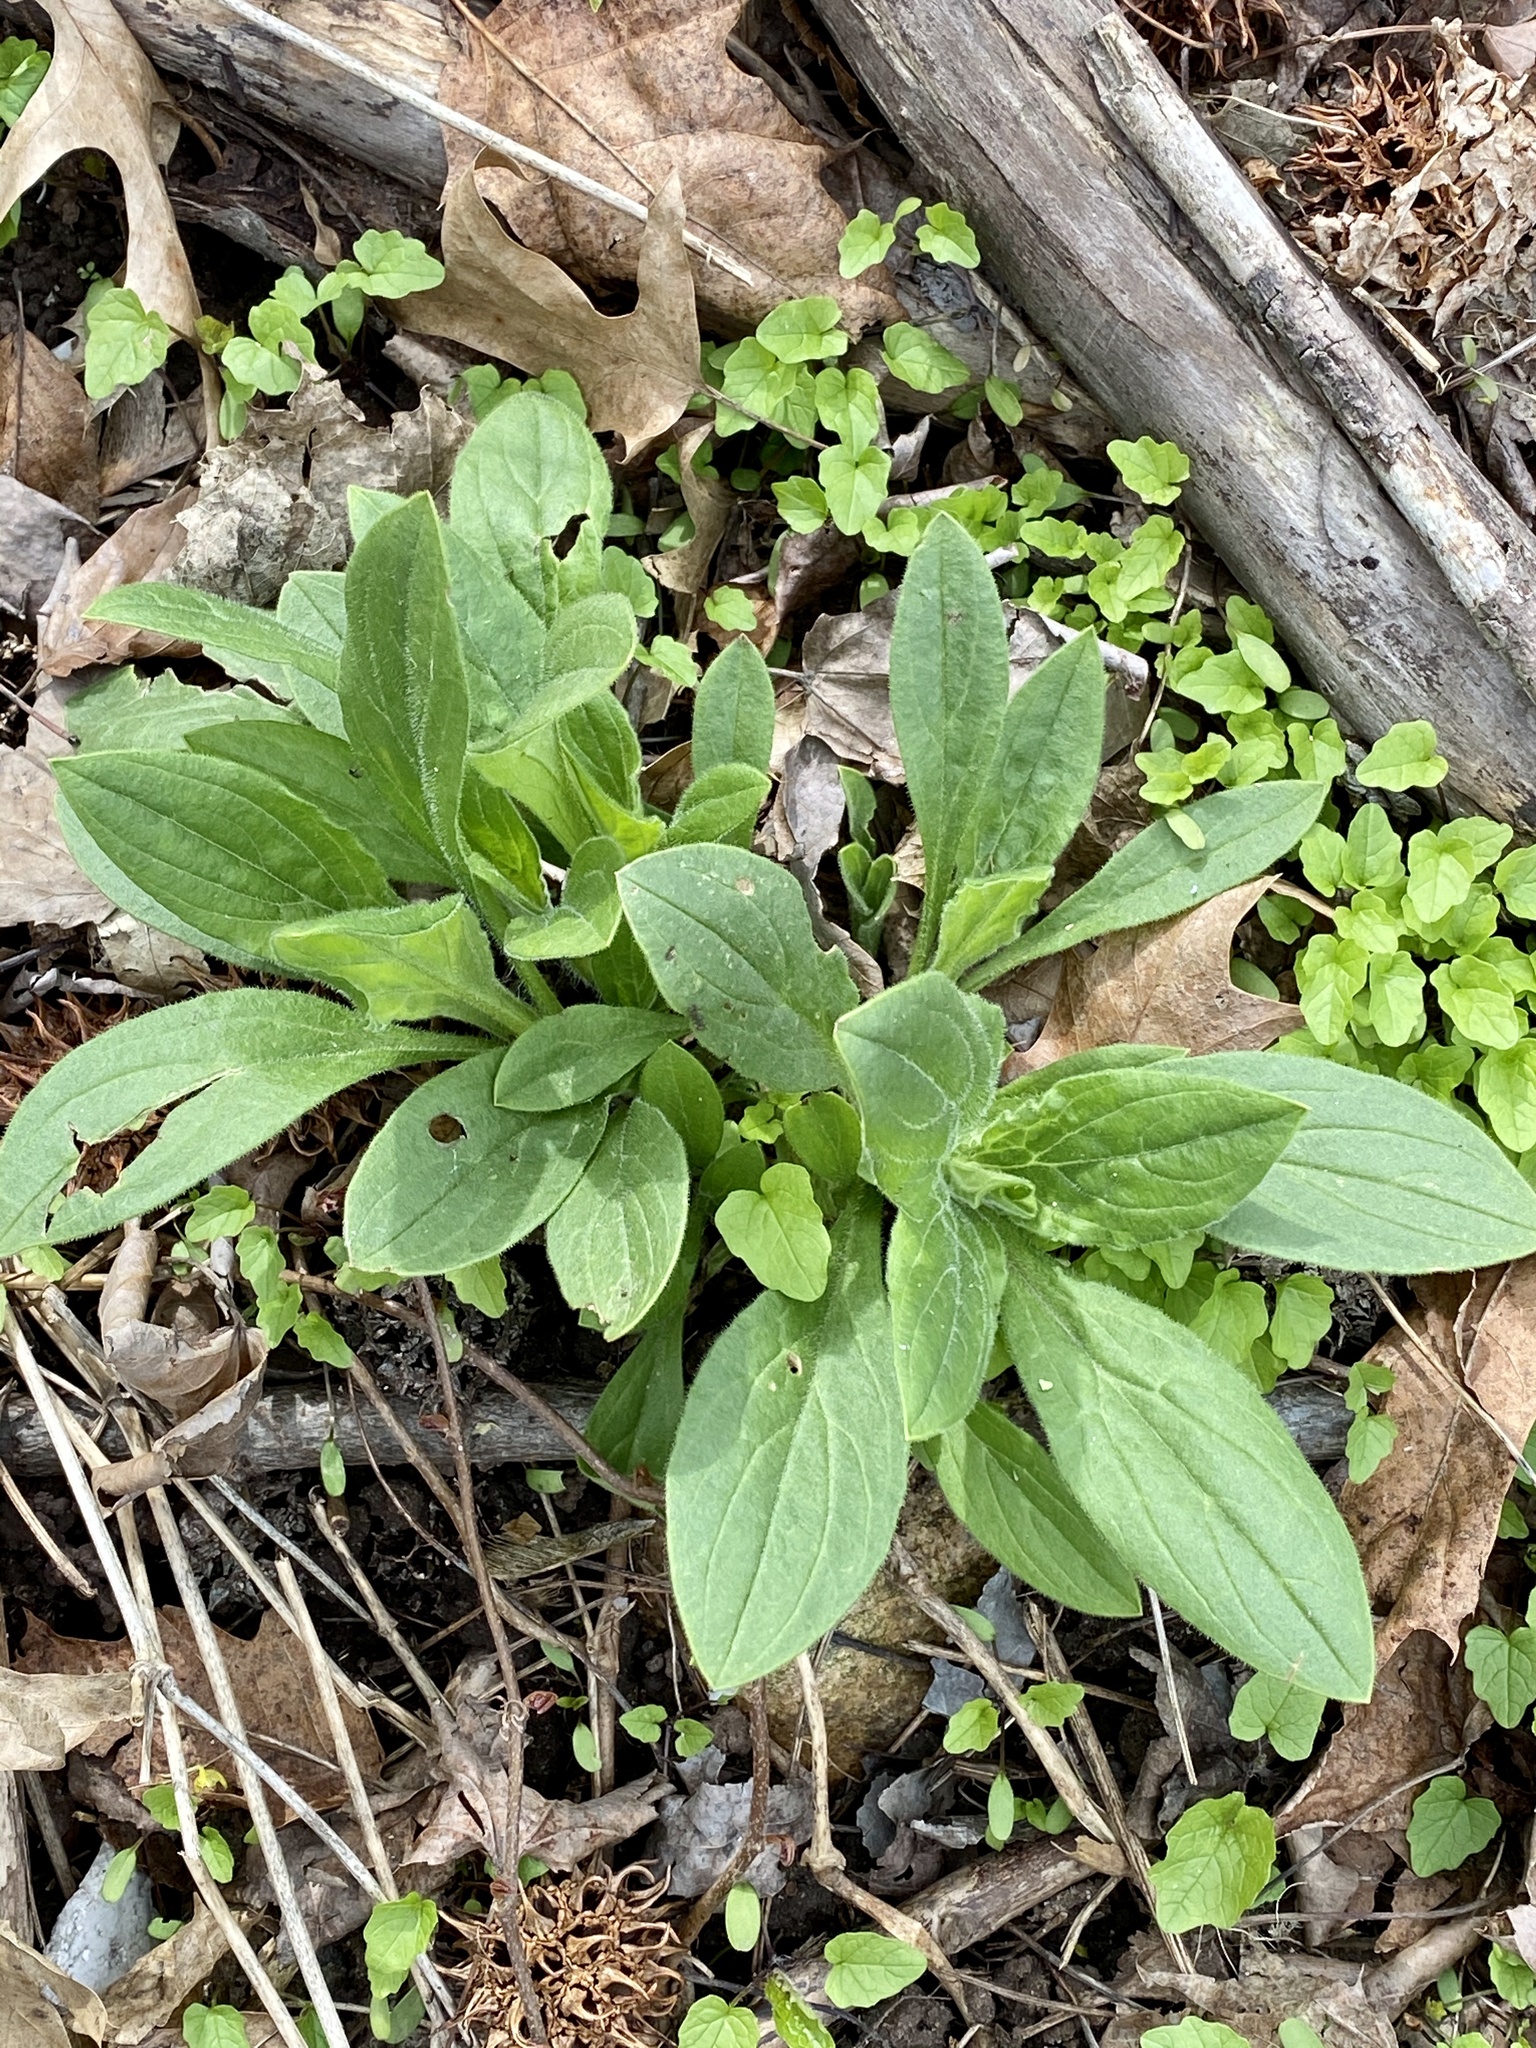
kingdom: Plantae
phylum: Tracheophyta
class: Magnoliopsida
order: Caryophyllales
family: Caryophyllaceae
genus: Silene
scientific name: Silene latifolia
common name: White campion
